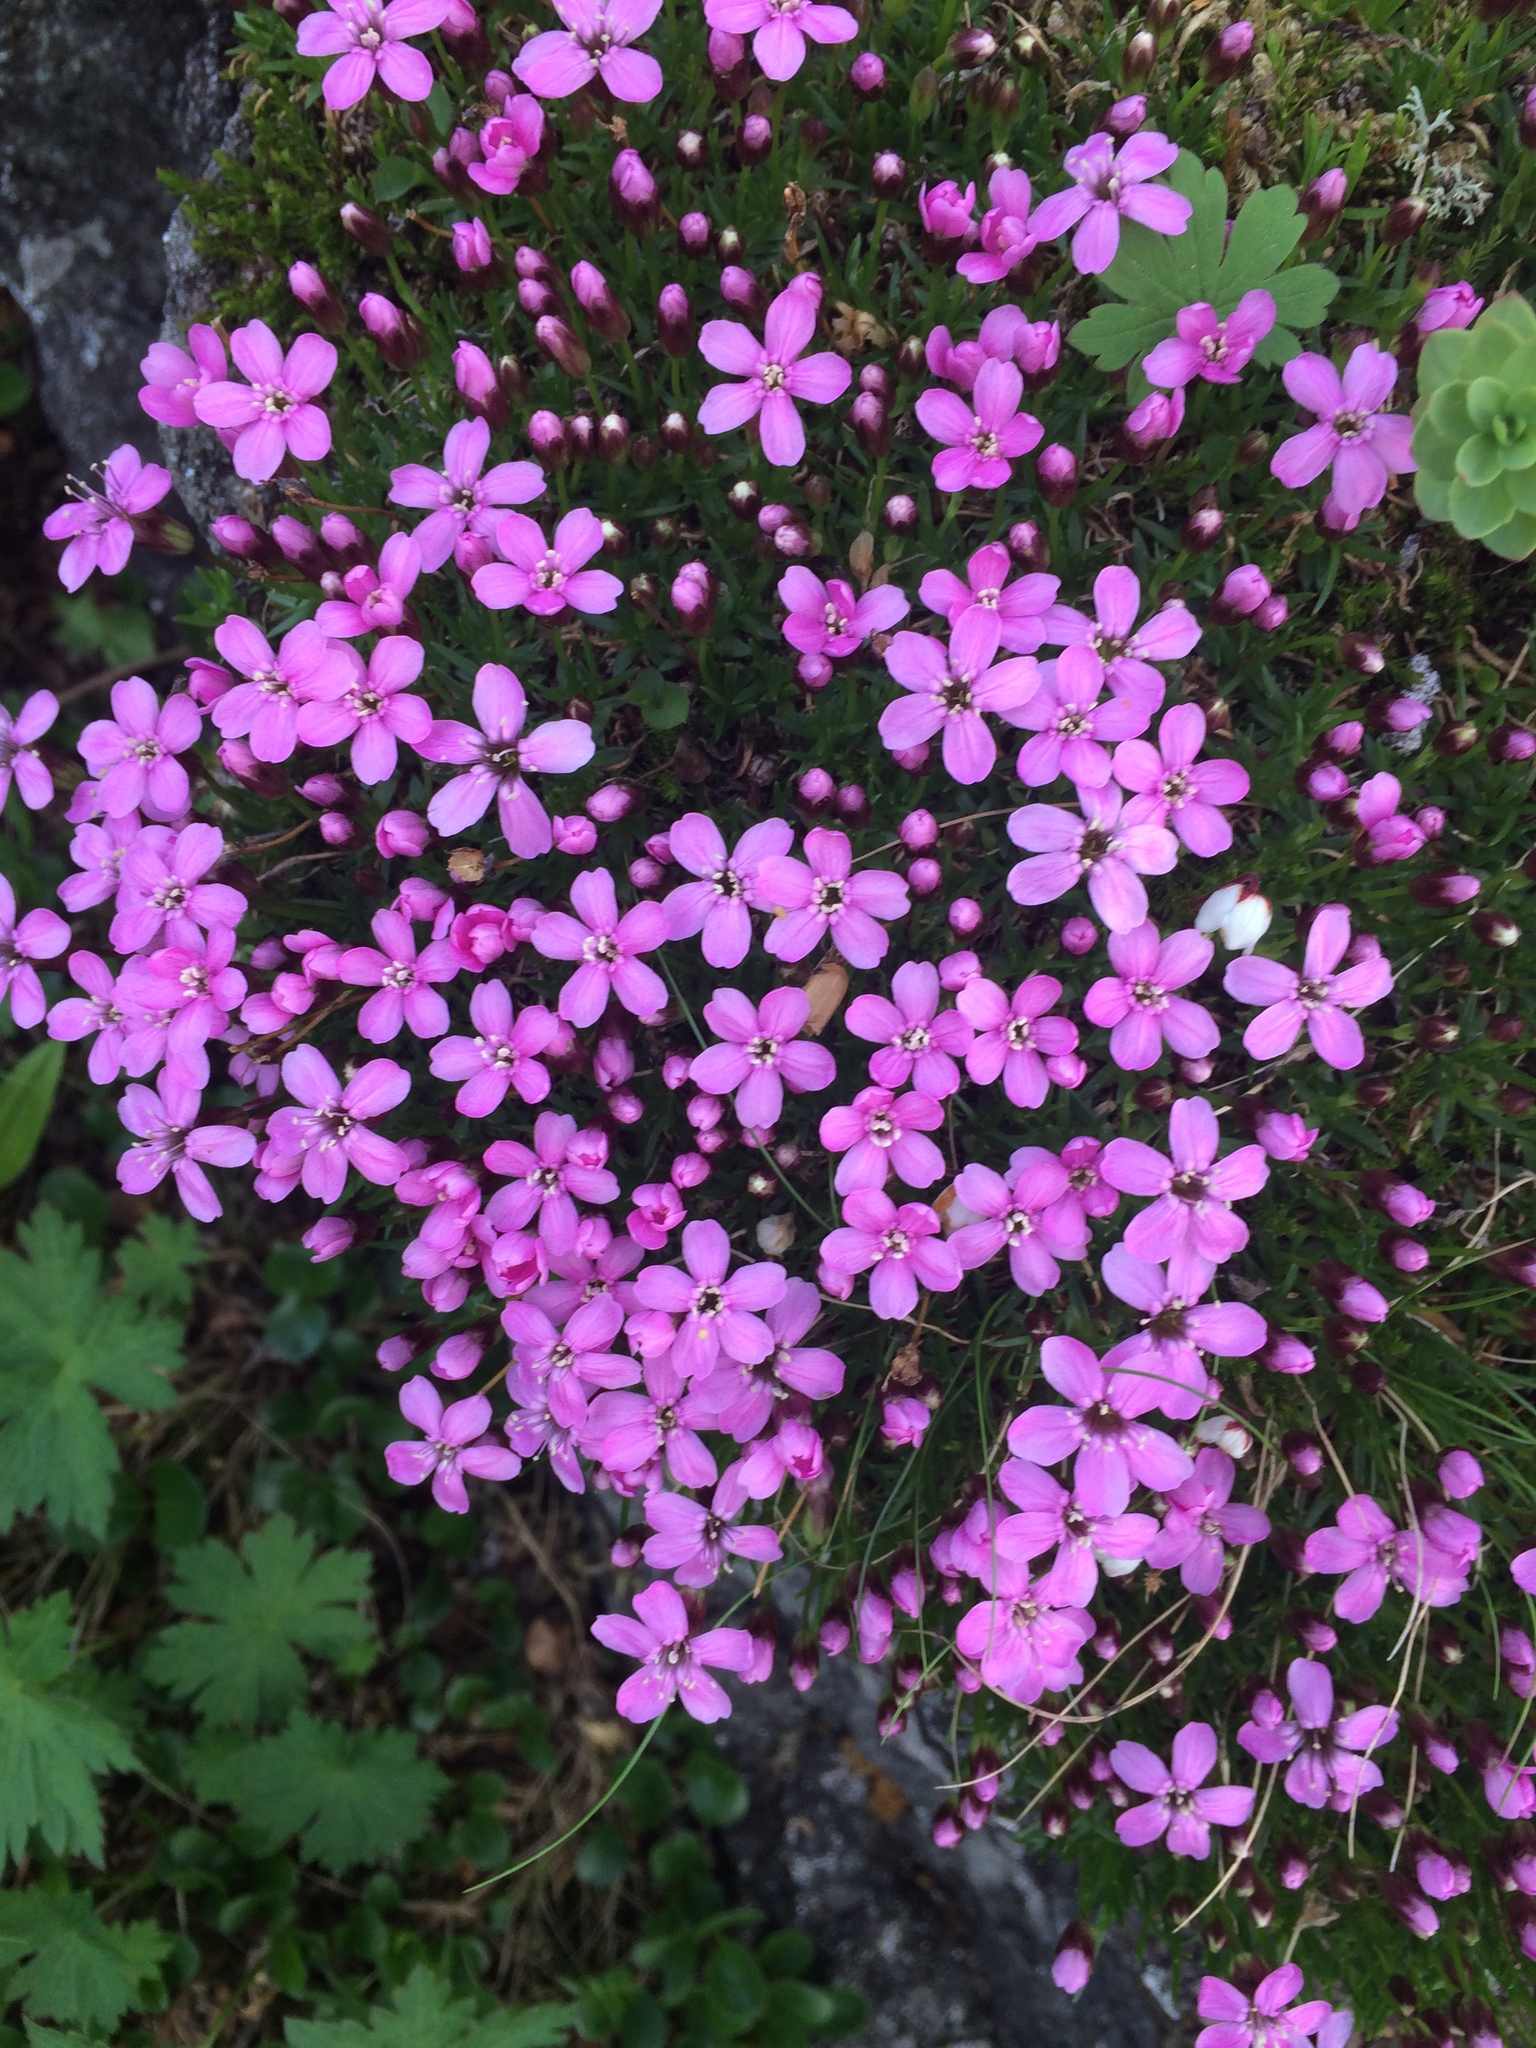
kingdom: Plantae
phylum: Tracheophyta
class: Magnoliopsida
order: Caryophyllales
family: Caryophyllaceae
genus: Silene
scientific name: Silene acaulis
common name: Moss campion
